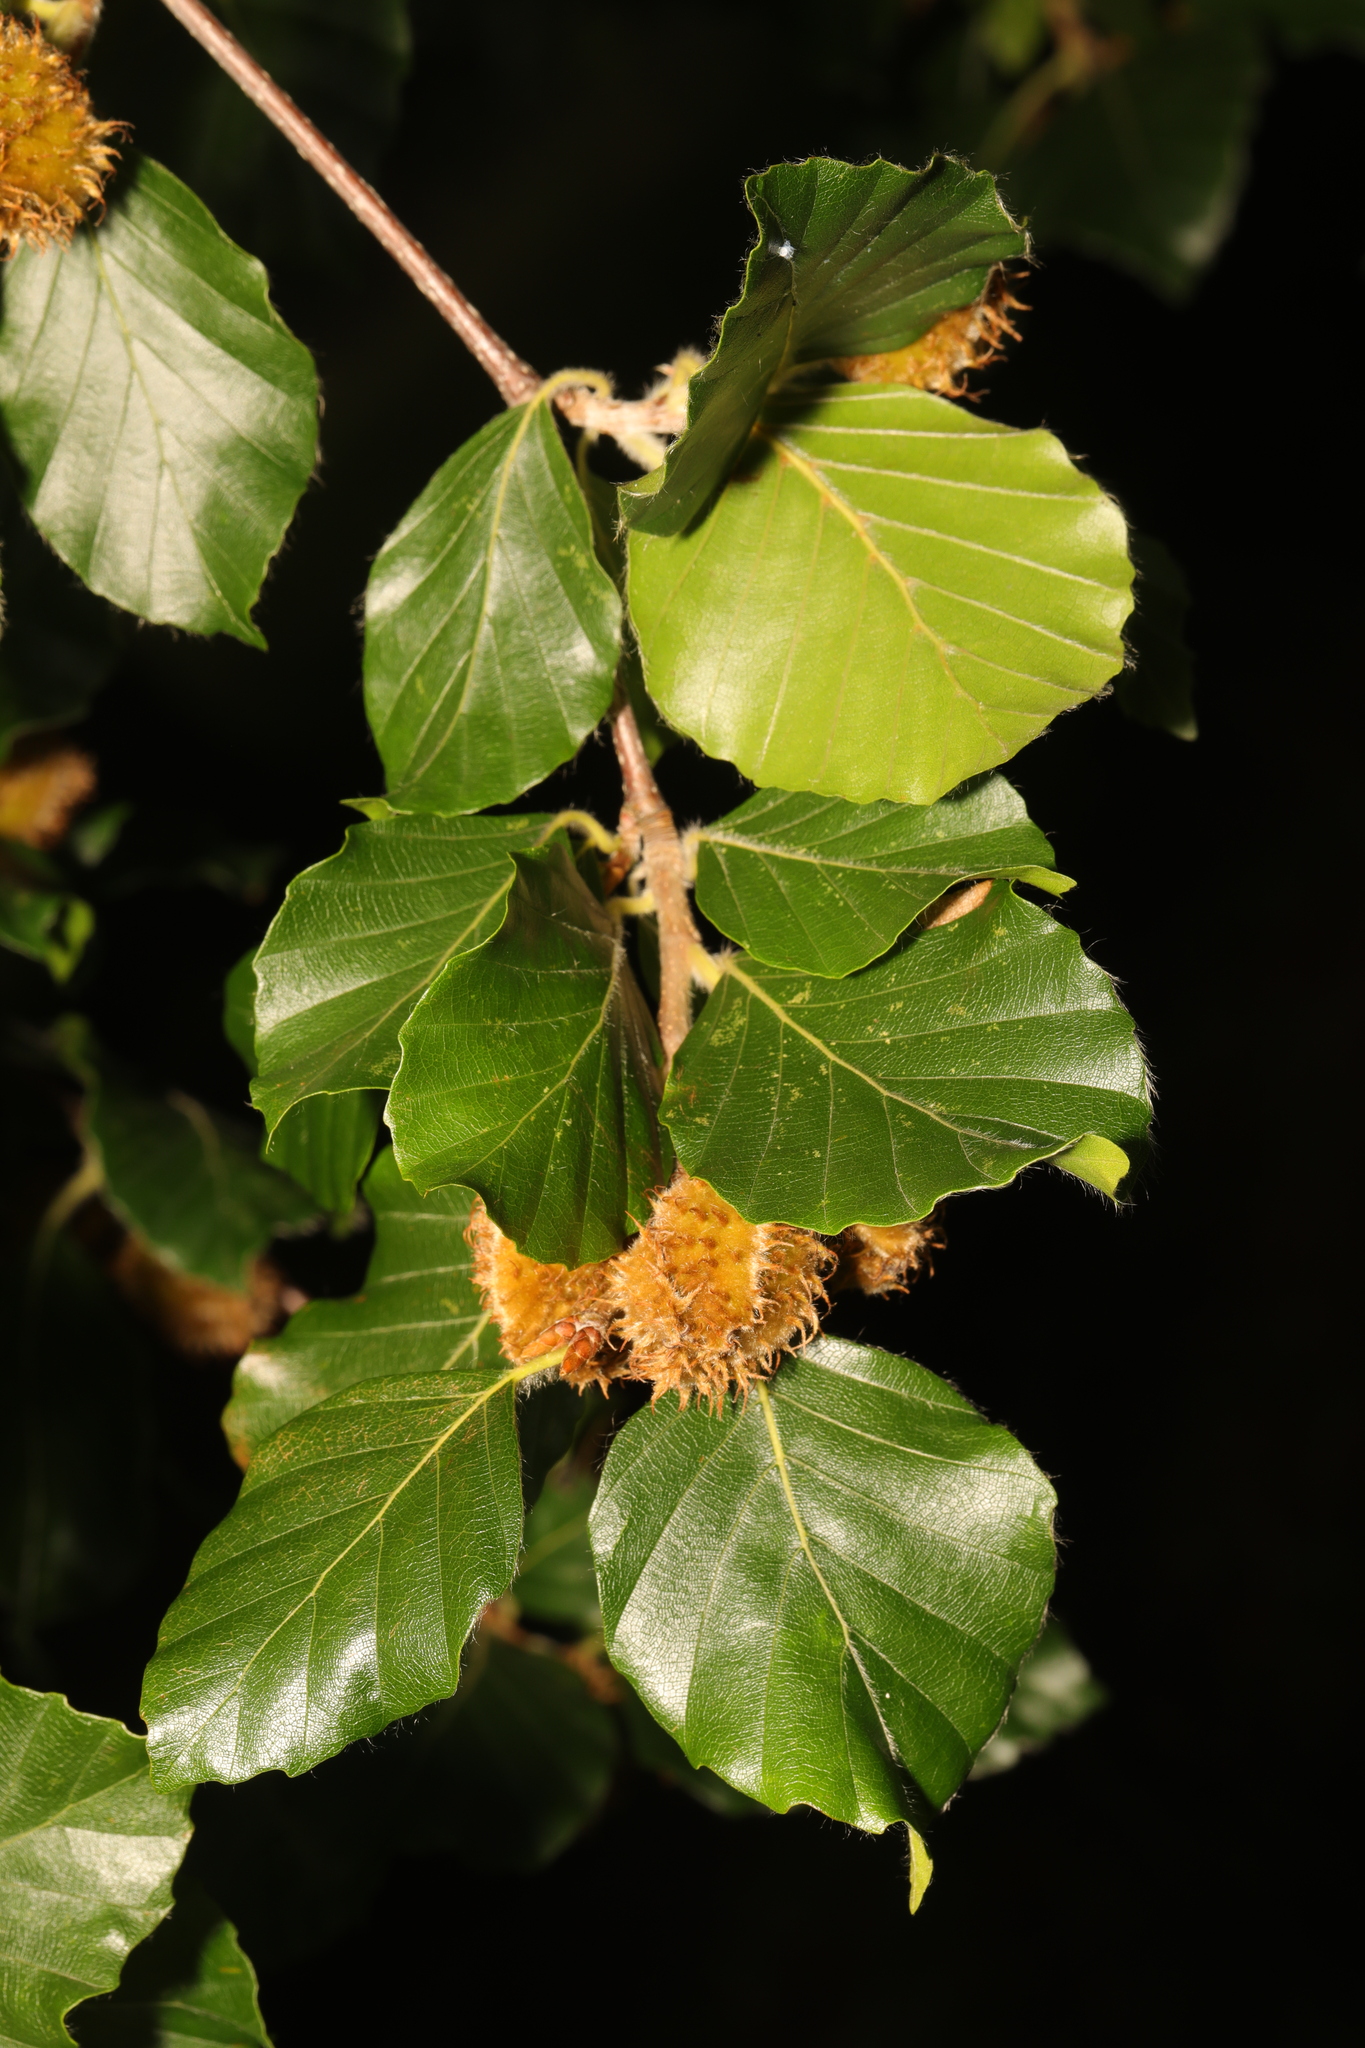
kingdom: Plantae
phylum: Tracheophyta
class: Magnoliopsida
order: Fagales
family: Fagaceae
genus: Fagus
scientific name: Fagus sylvatica
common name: Beech
